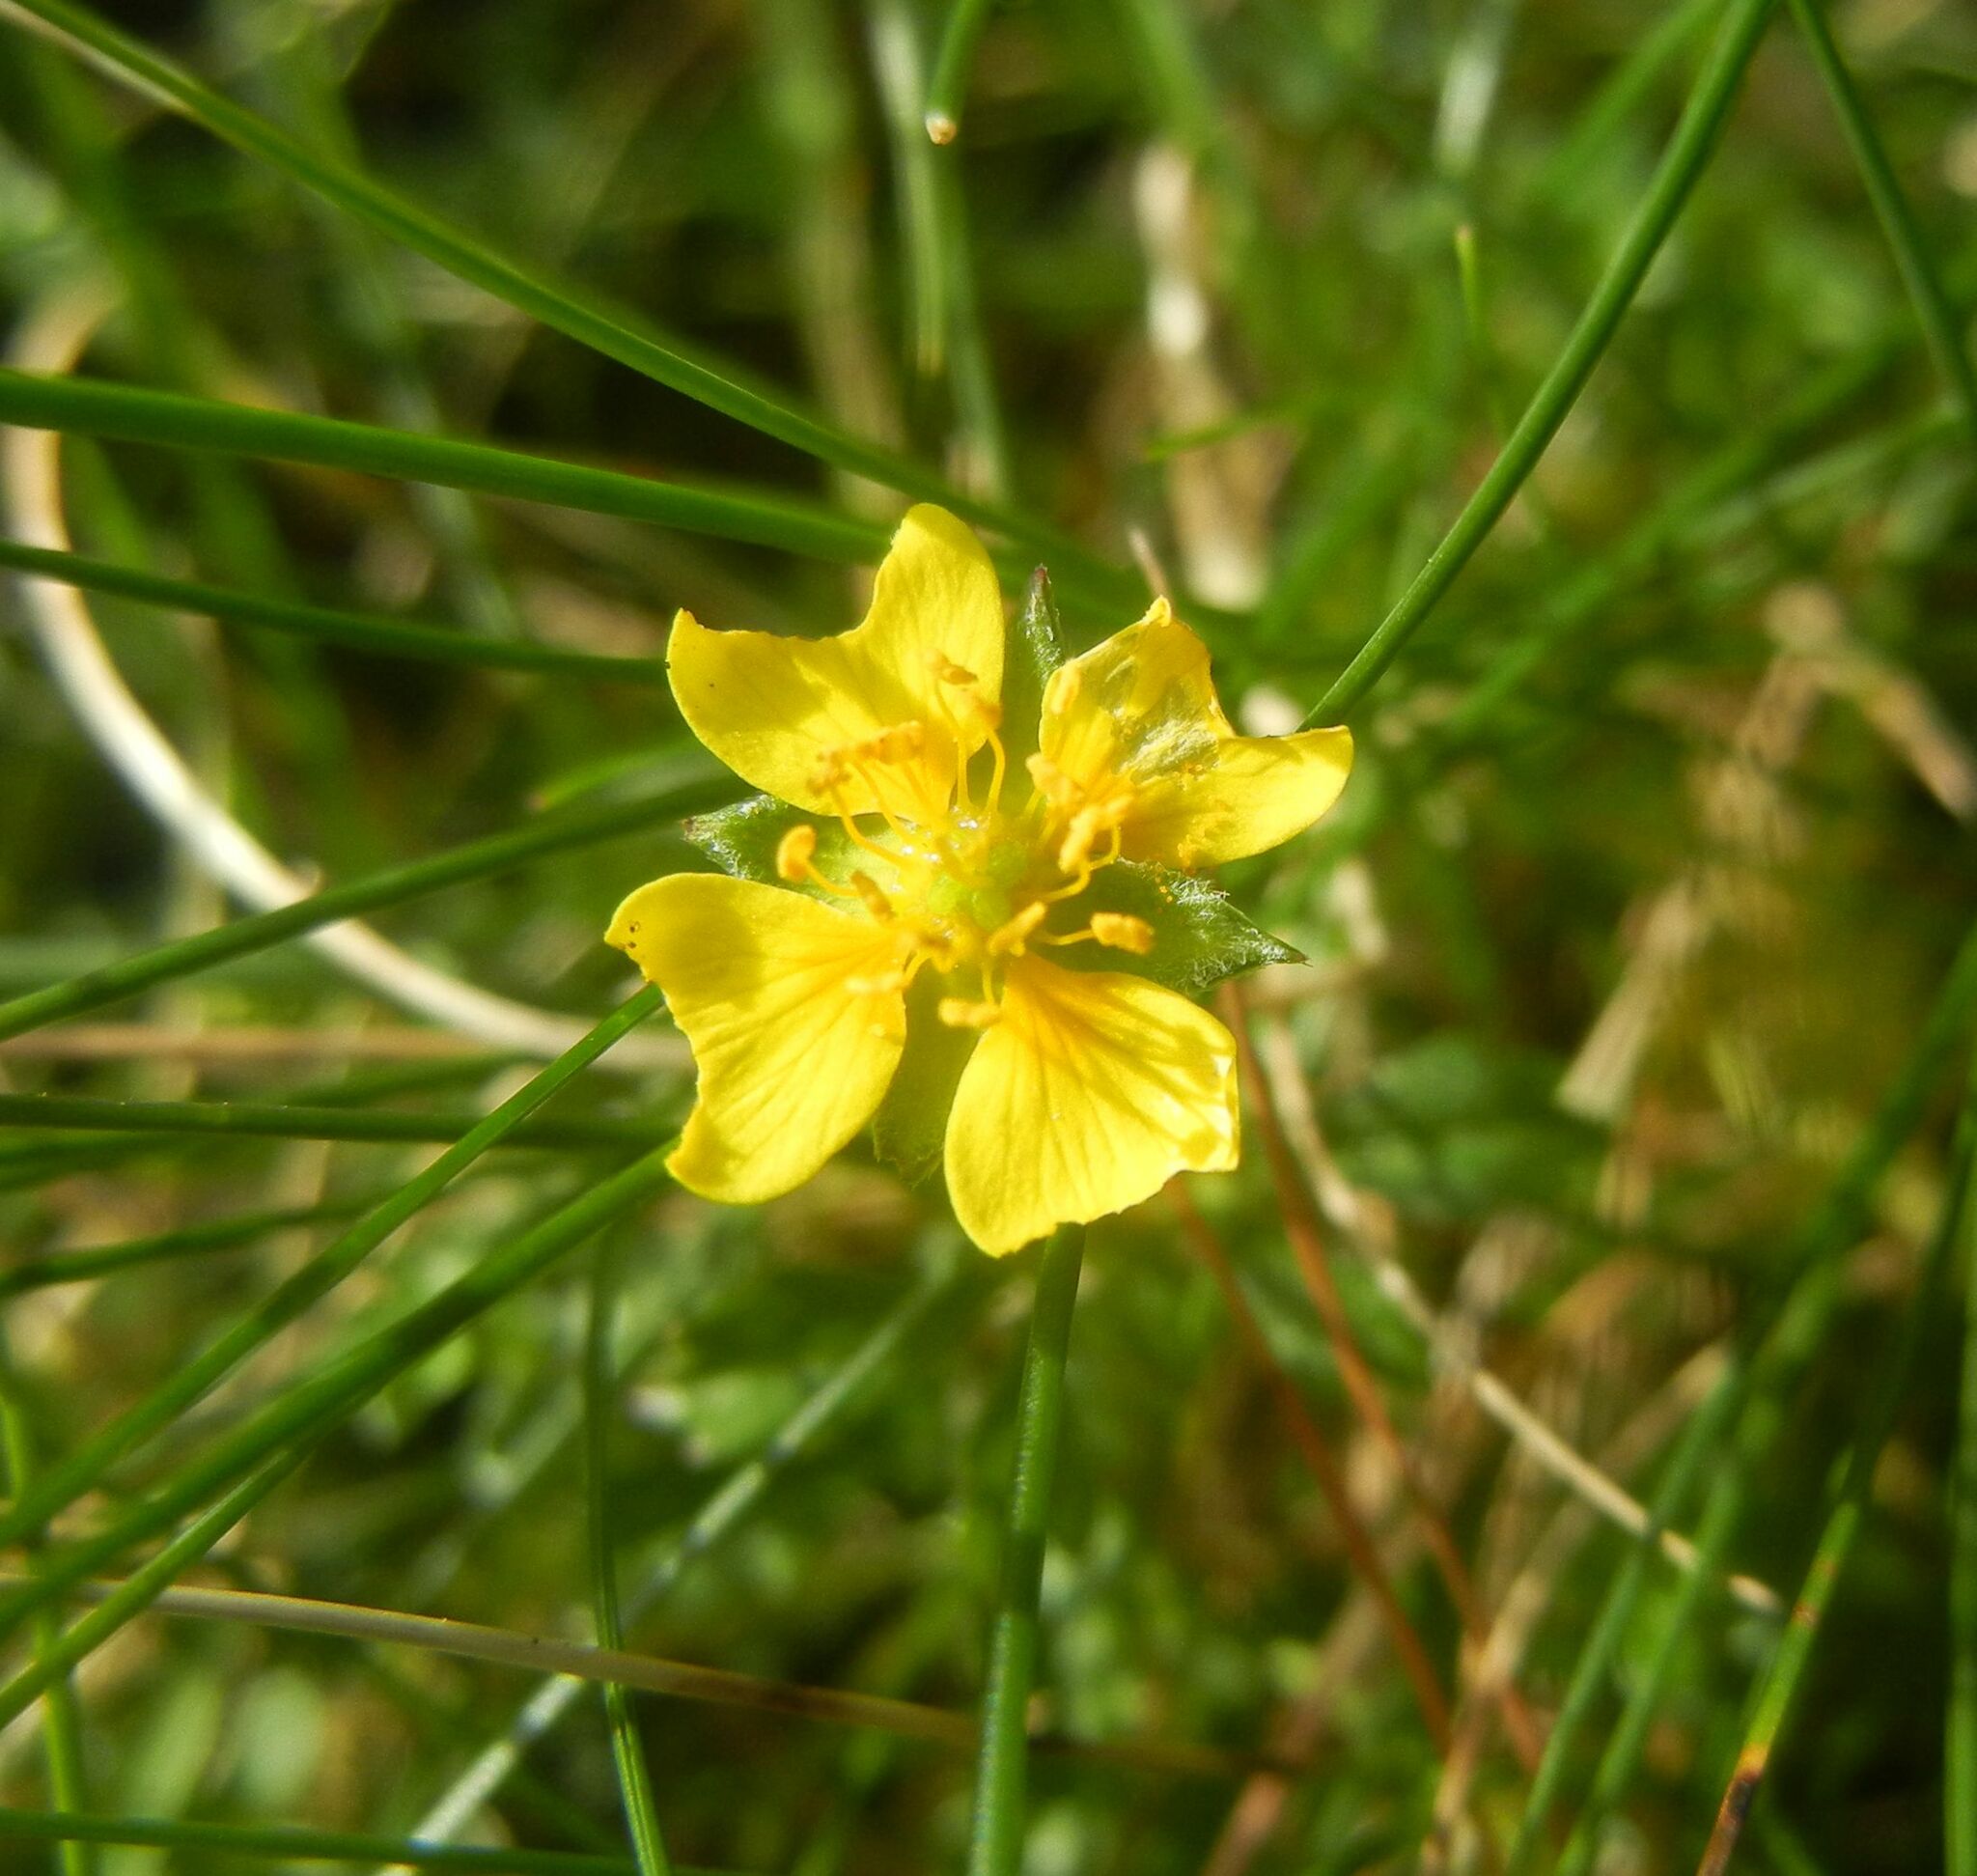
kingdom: Plantae
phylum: Tracheophyta
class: Magnoliopsida
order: Rosales
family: Rosaceae
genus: Potentilla
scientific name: Potentilla erecta
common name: Tormentil
